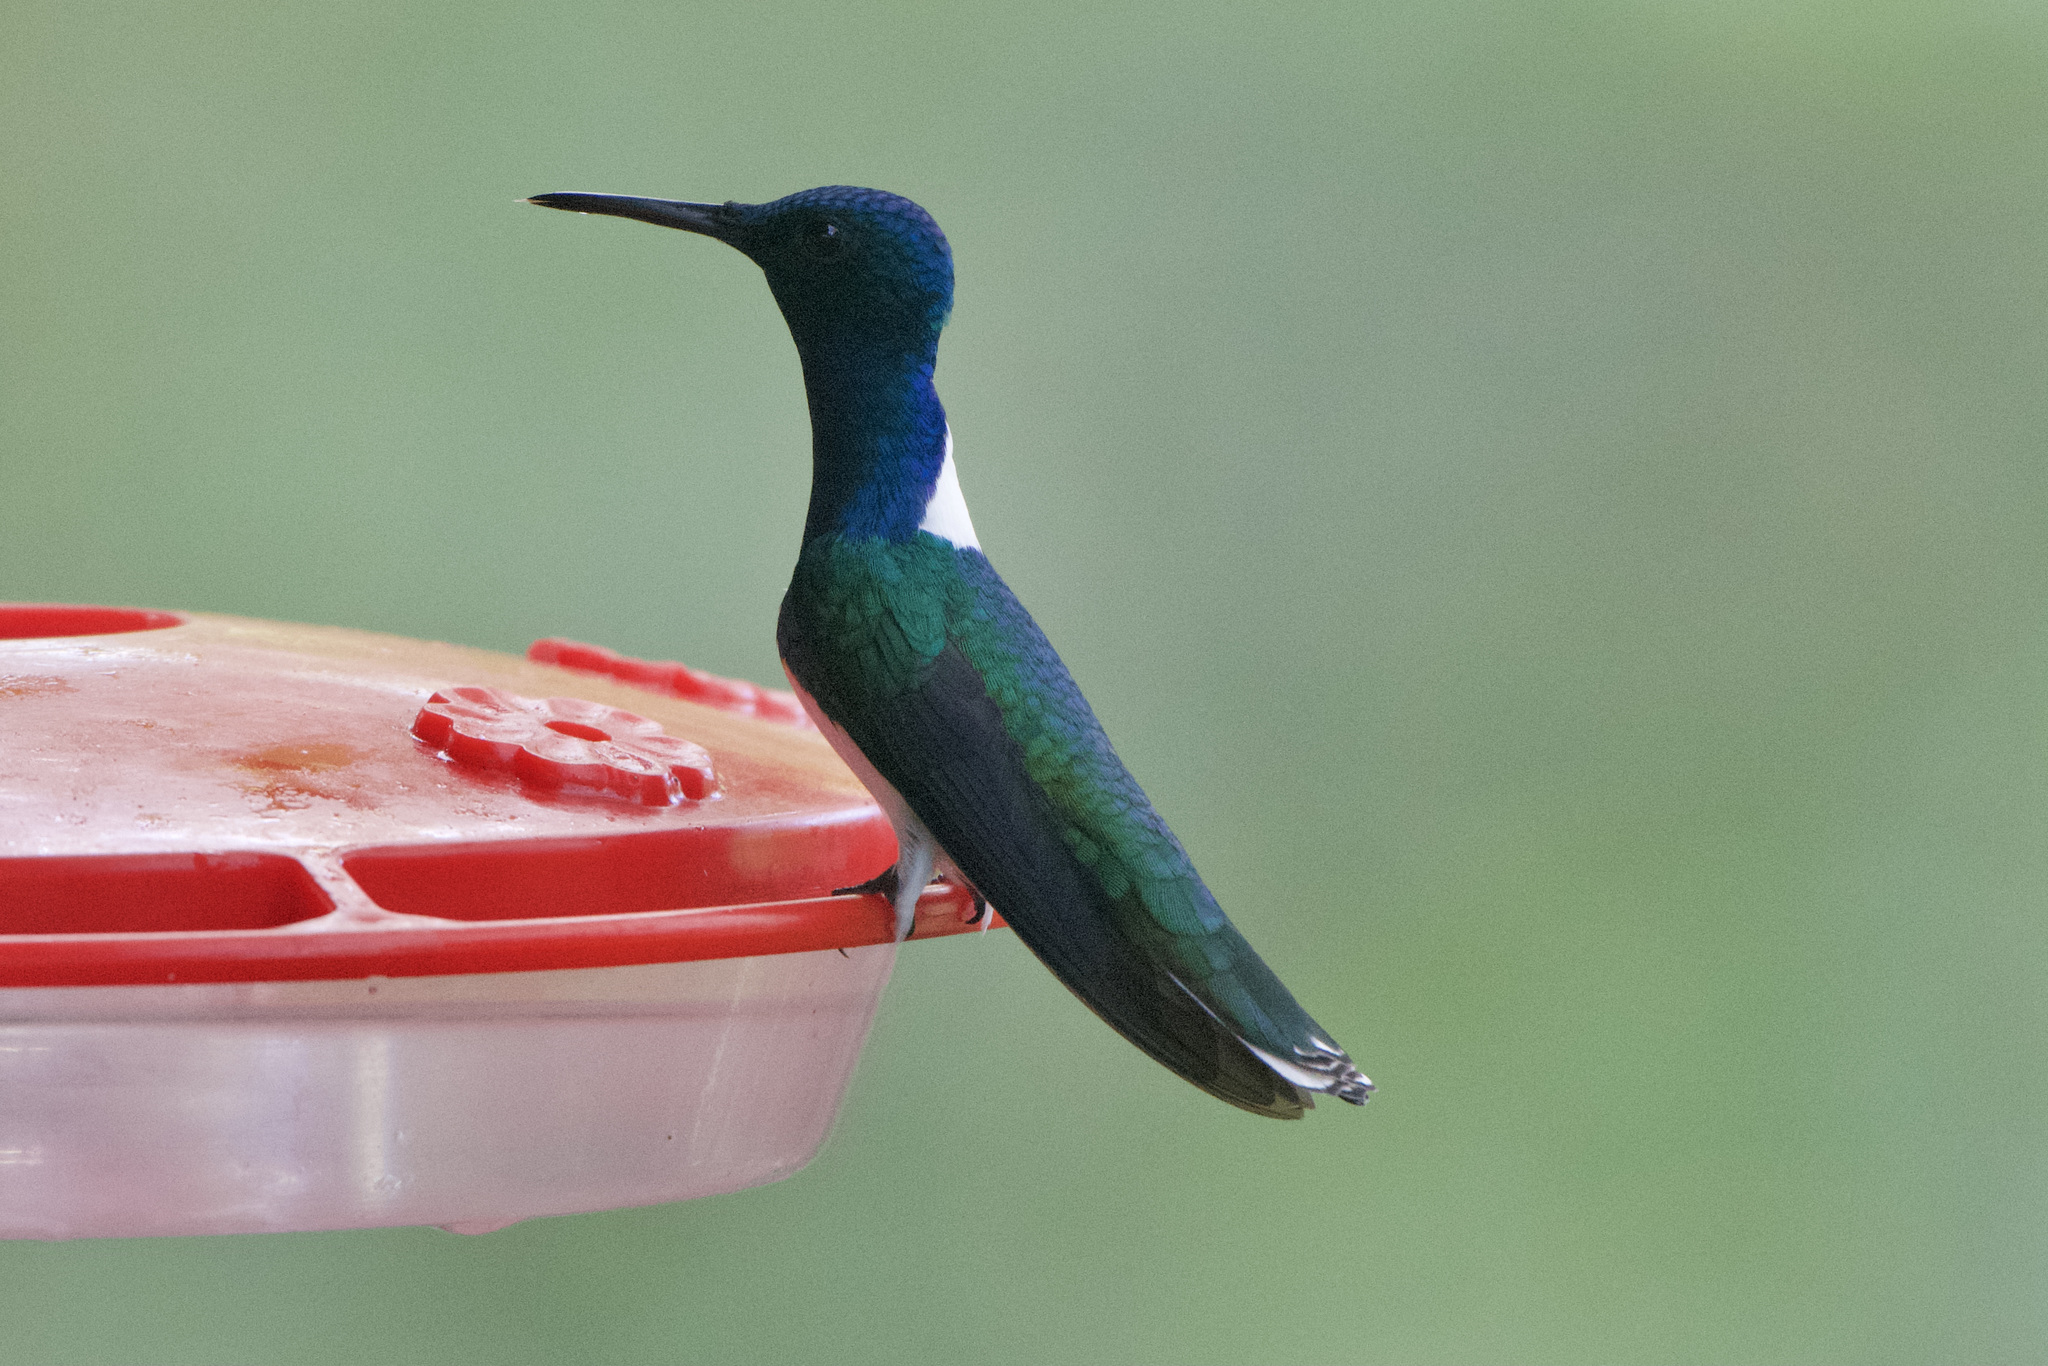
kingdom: Animalia
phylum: Chordata
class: Aves
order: Apodiformes
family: Trochilidae
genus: Florisuga
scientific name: Florisuga mellivora
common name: White-necked jacobin
